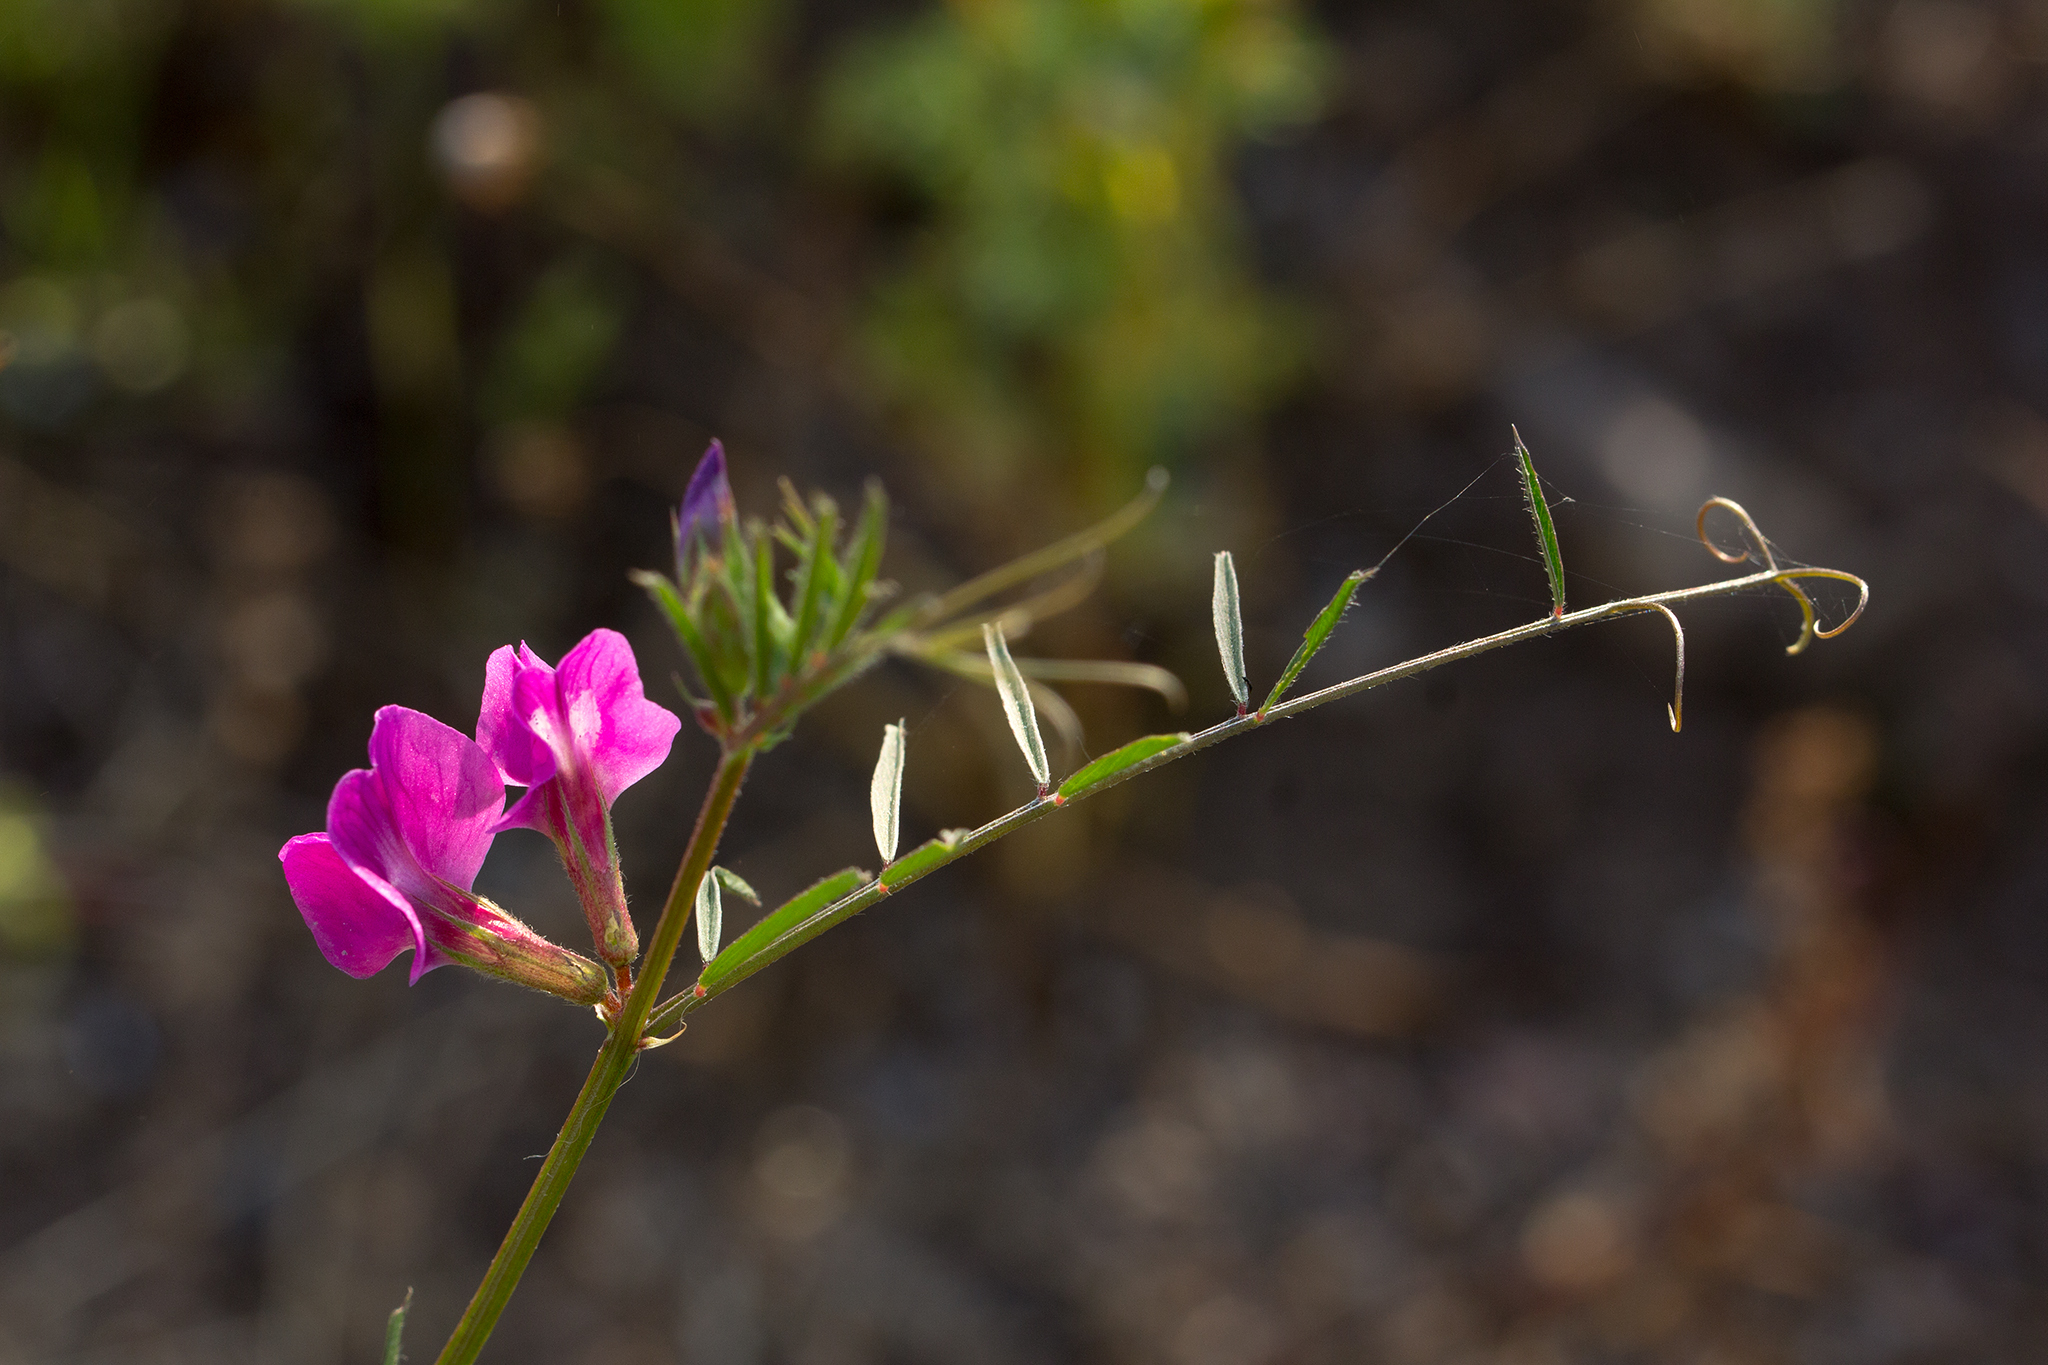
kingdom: Plantae
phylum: Tracheophyta
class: Magnoliopsida
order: Fabales
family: Fabaceae
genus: Vicia
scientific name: Vicia sativa
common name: Garden vetch
